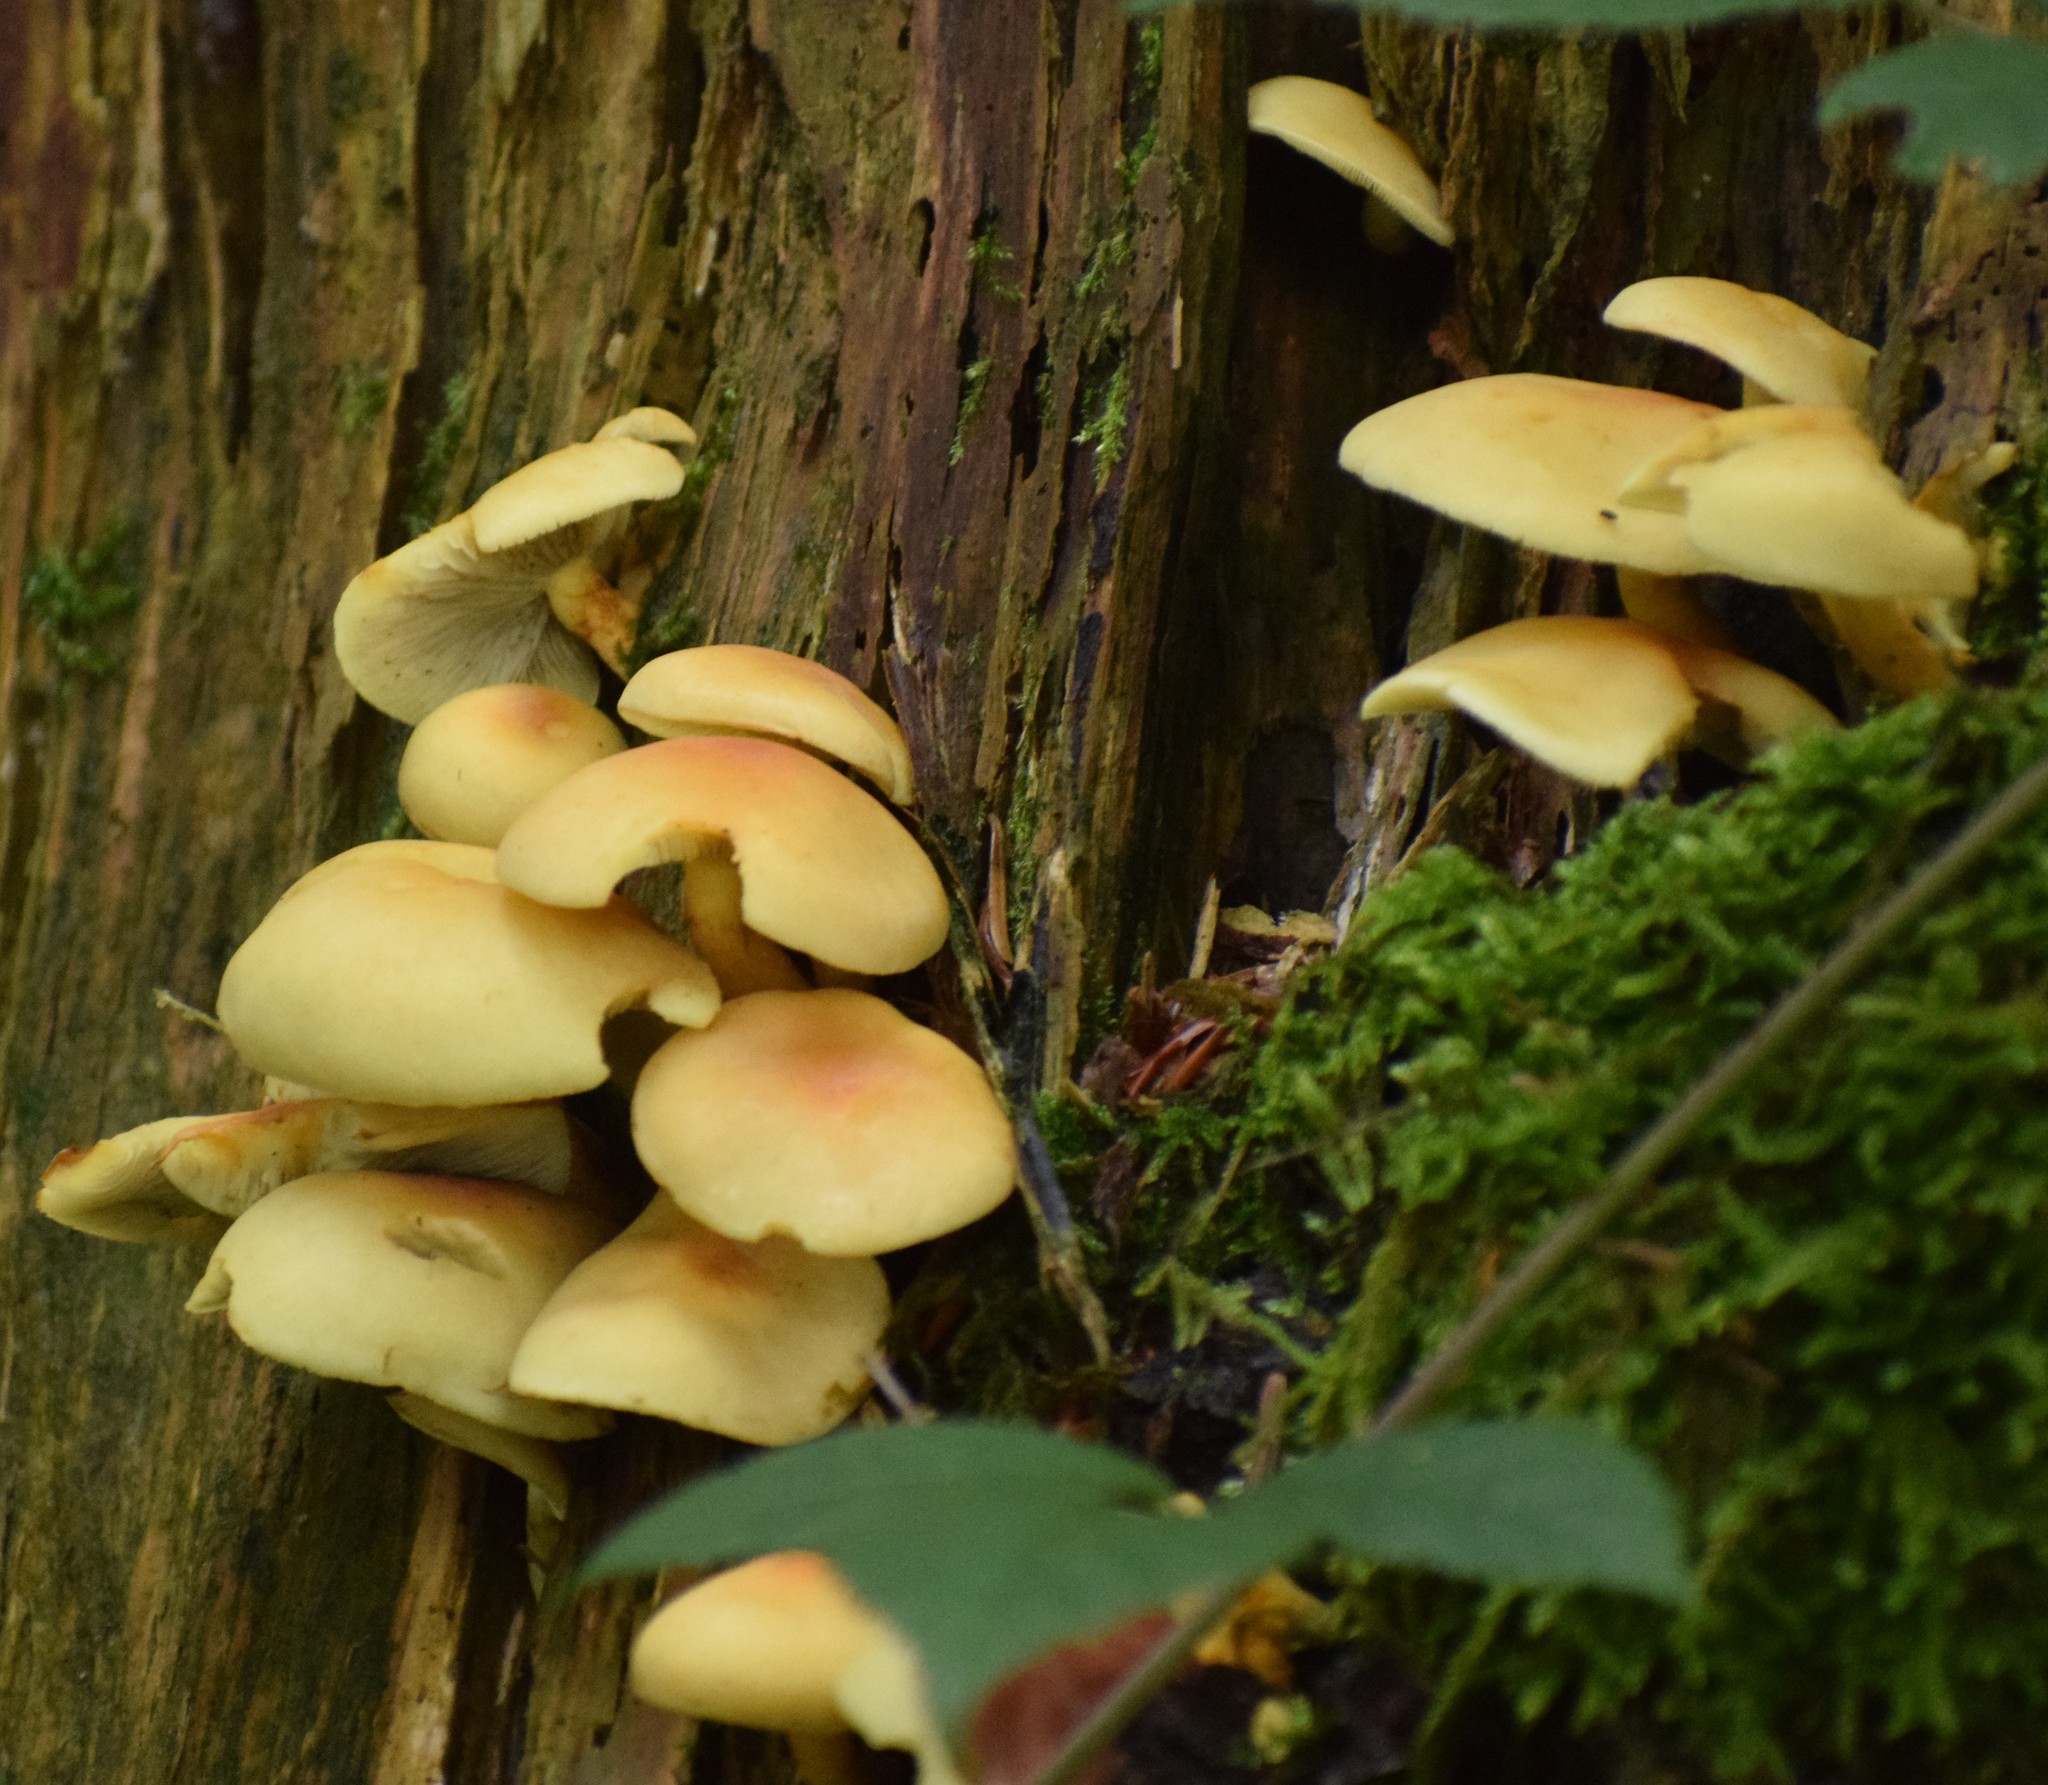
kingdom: Fungi
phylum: Basidiomycota
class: Agaricomycetes
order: Agaricales
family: Strophariaceae
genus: Hypholoma
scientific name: Hypholoma fasciculare
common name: Sulphur tuft
